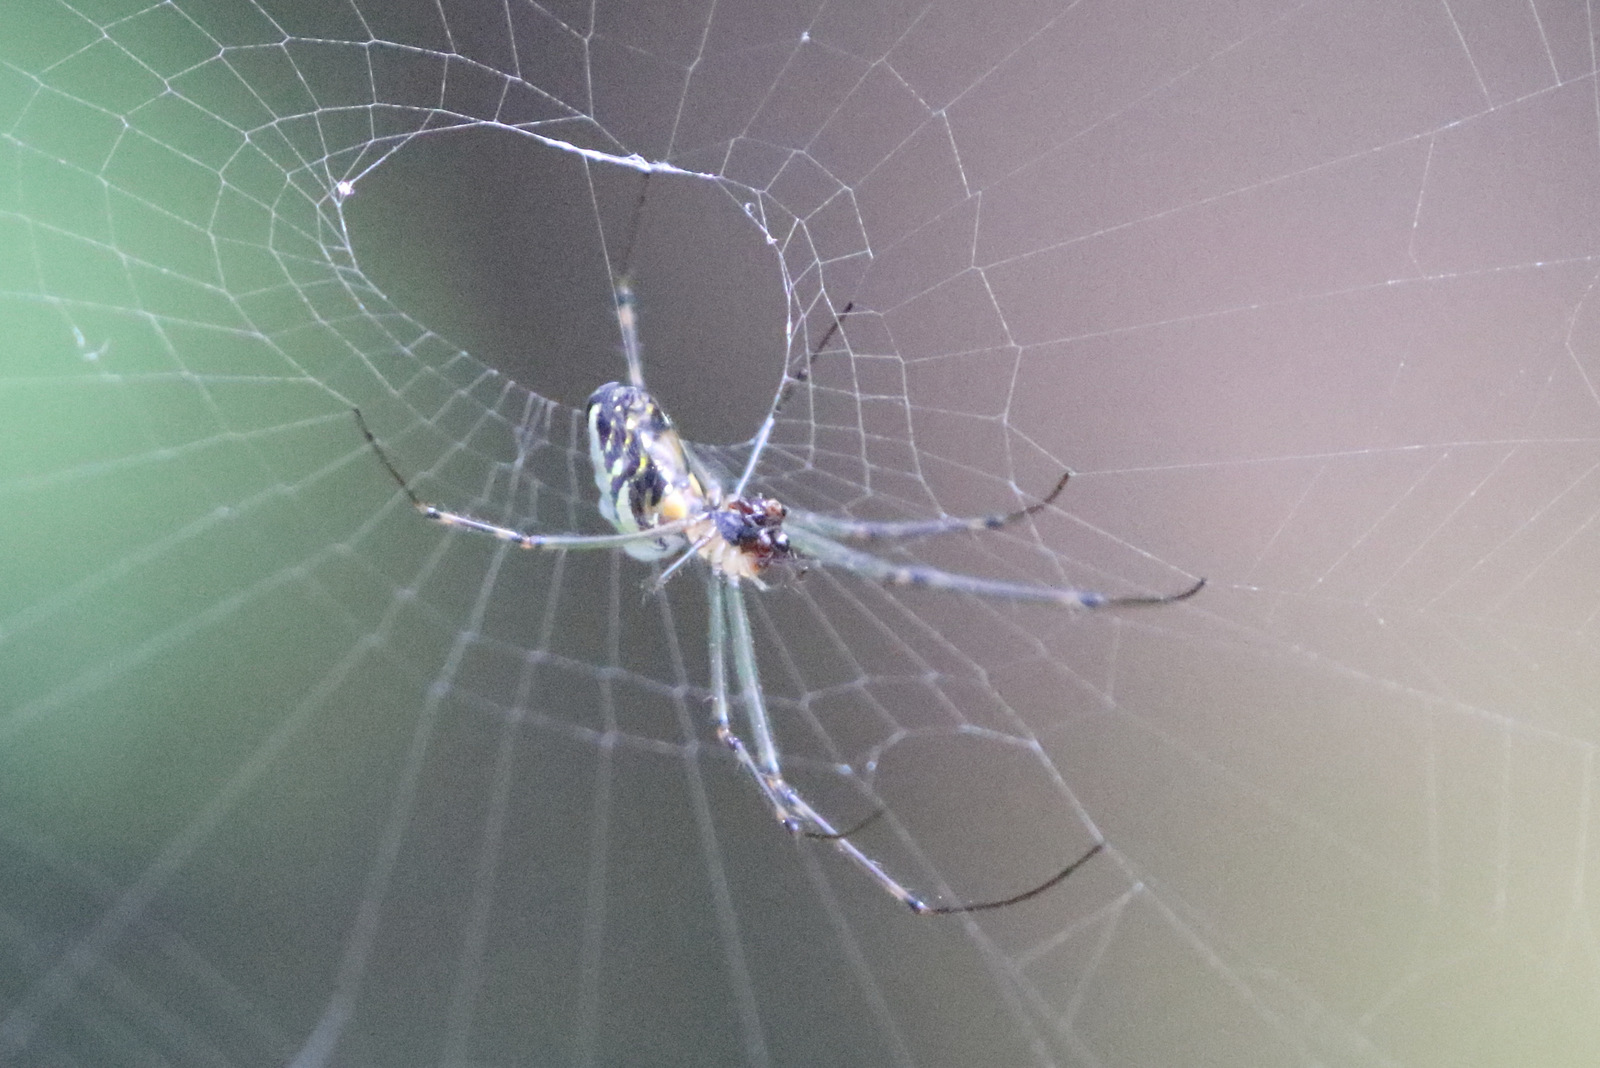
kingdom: Animalia
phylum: Arthropoda
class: Arachnida
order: Araneae
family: Tetragnathidae
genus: Leucauge
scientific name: Leucauge dromedaria
